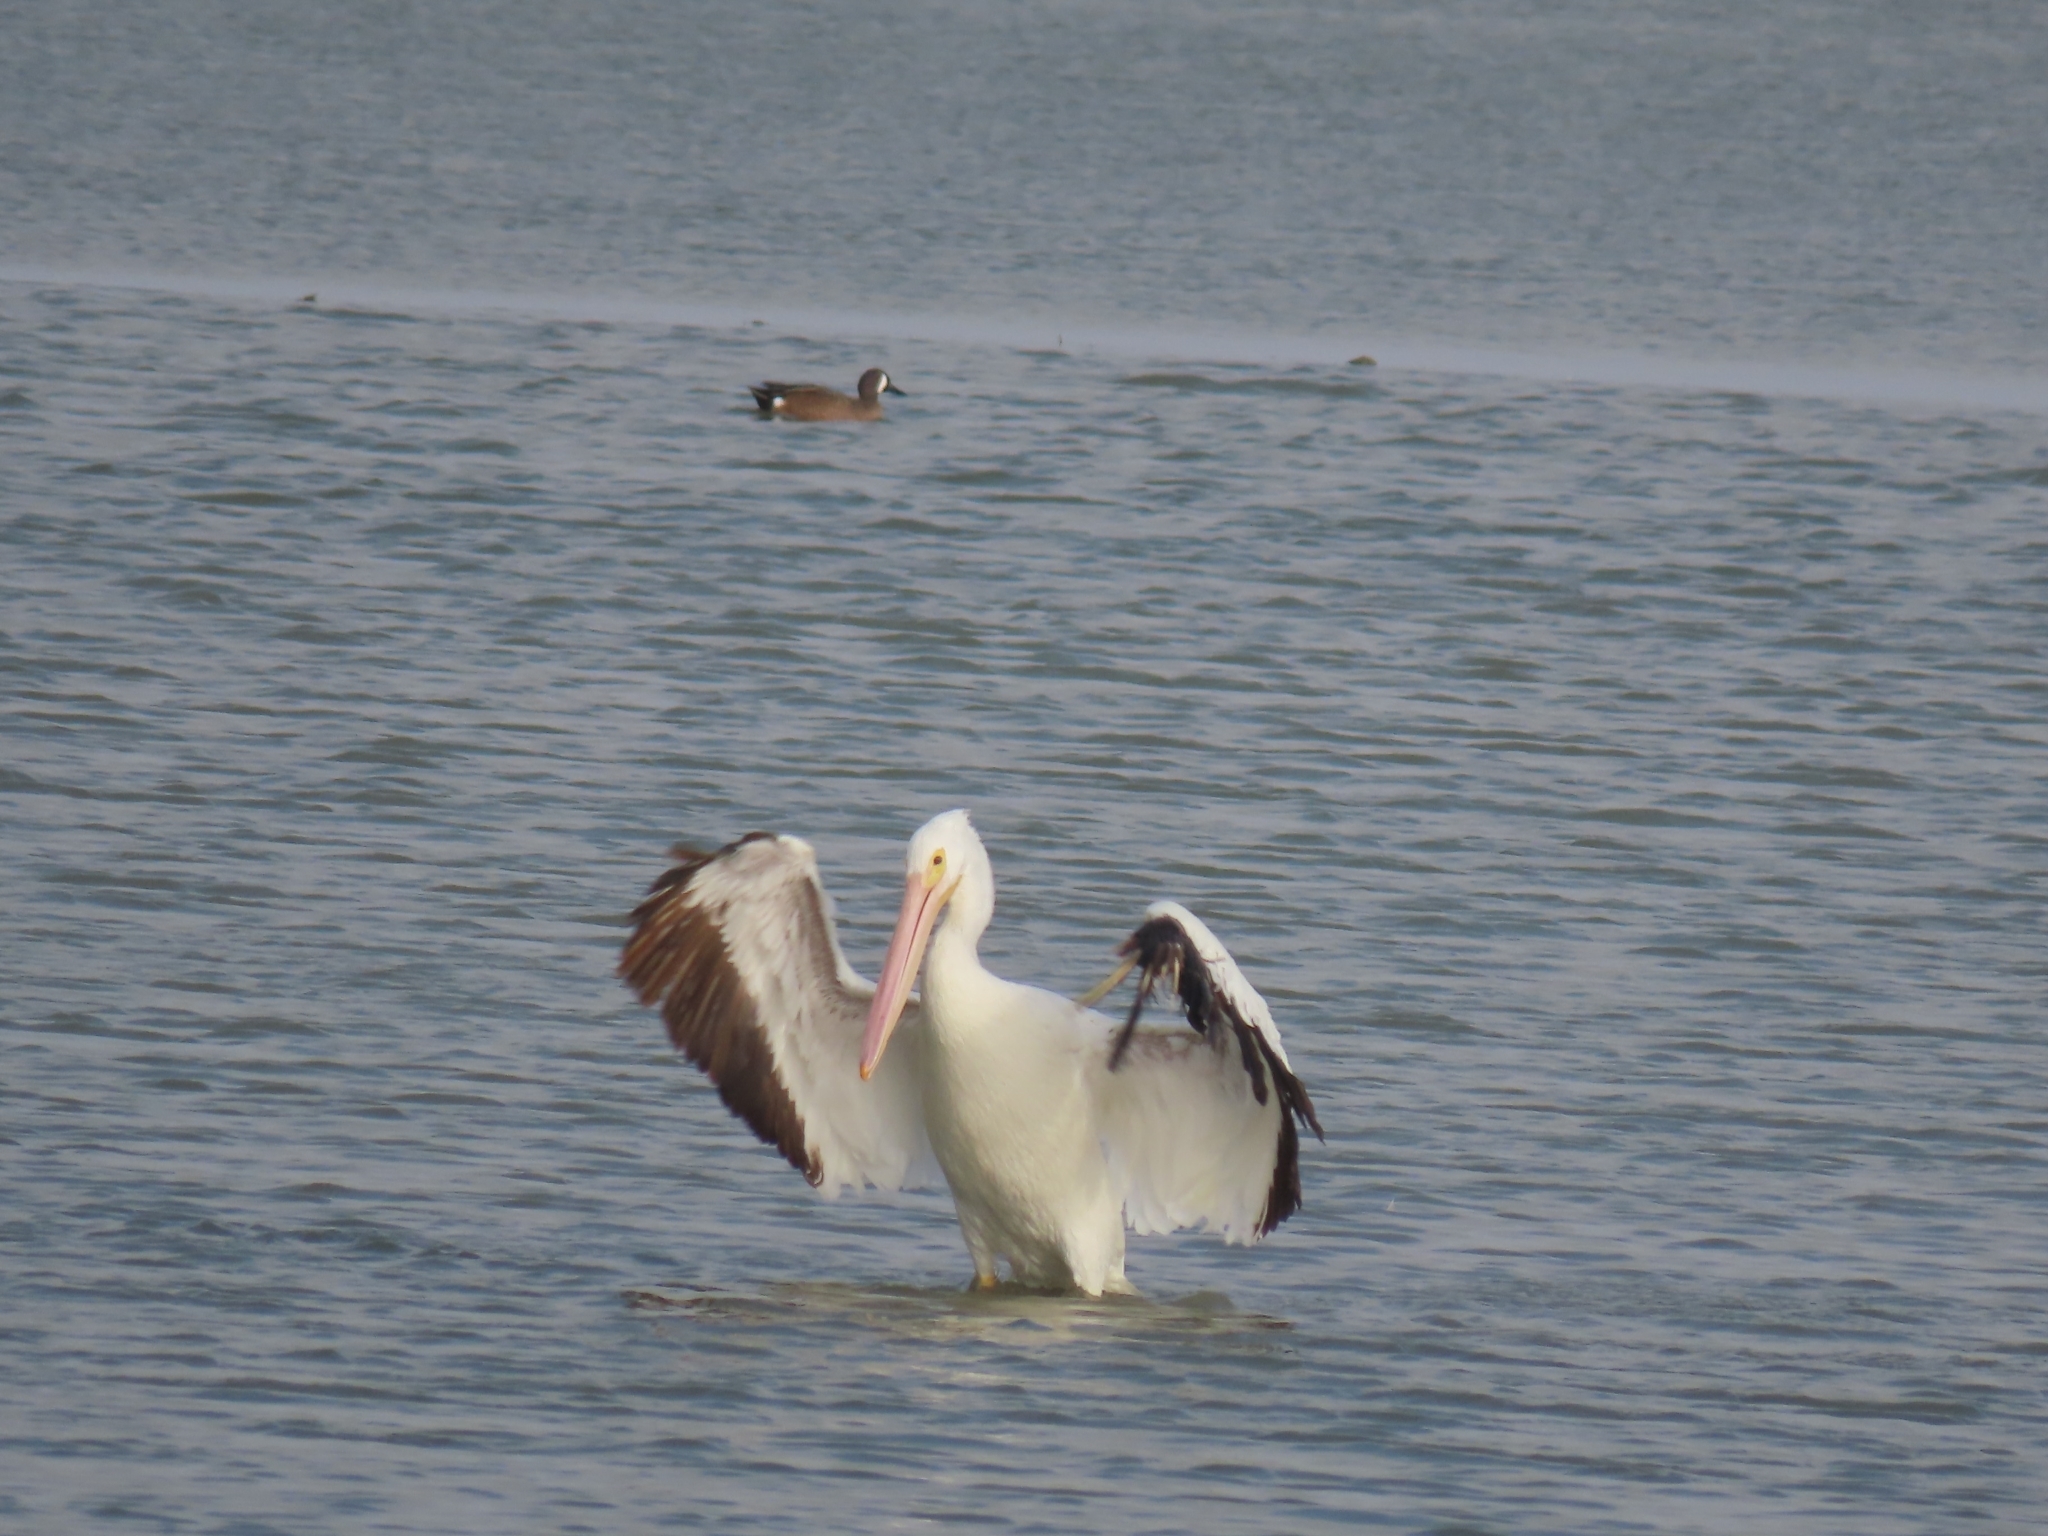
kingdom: Animalia
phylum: Chordata
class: Aves
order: Pelecaniformes
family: Pelecanidae
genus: Pelecanus
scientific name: Pelecanus erythrorhynchos
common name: American white pelican
